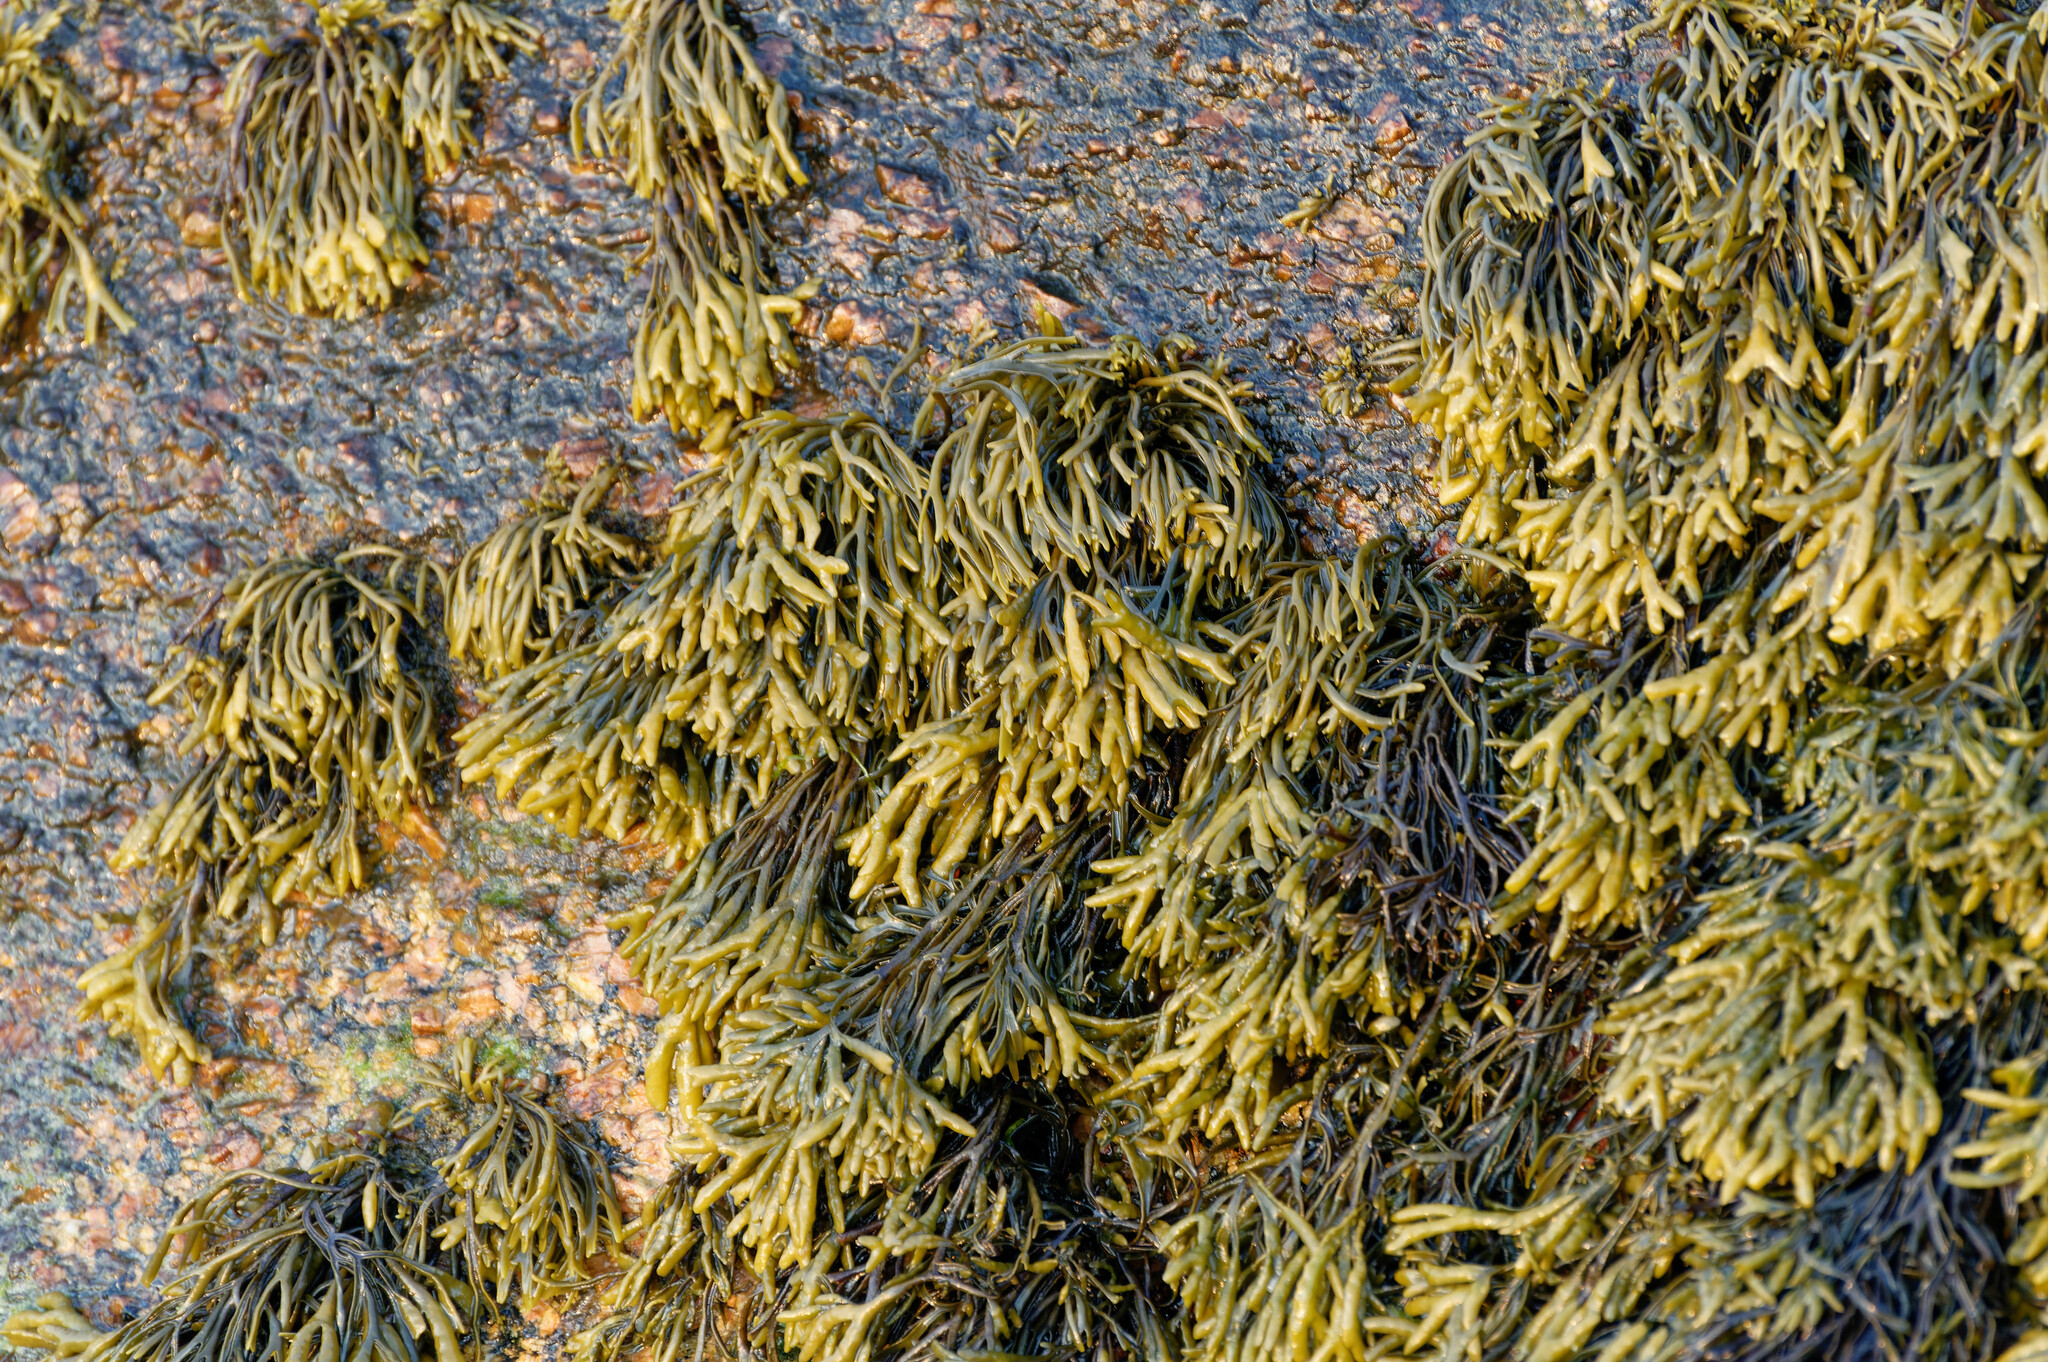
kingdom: Chromista
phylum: Ochrophyta
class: Phaeophyceae
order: Fucales
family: Fucaceae
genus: Pelvetia
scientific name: Pelvetia canaliculata
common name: Channelled wrack
